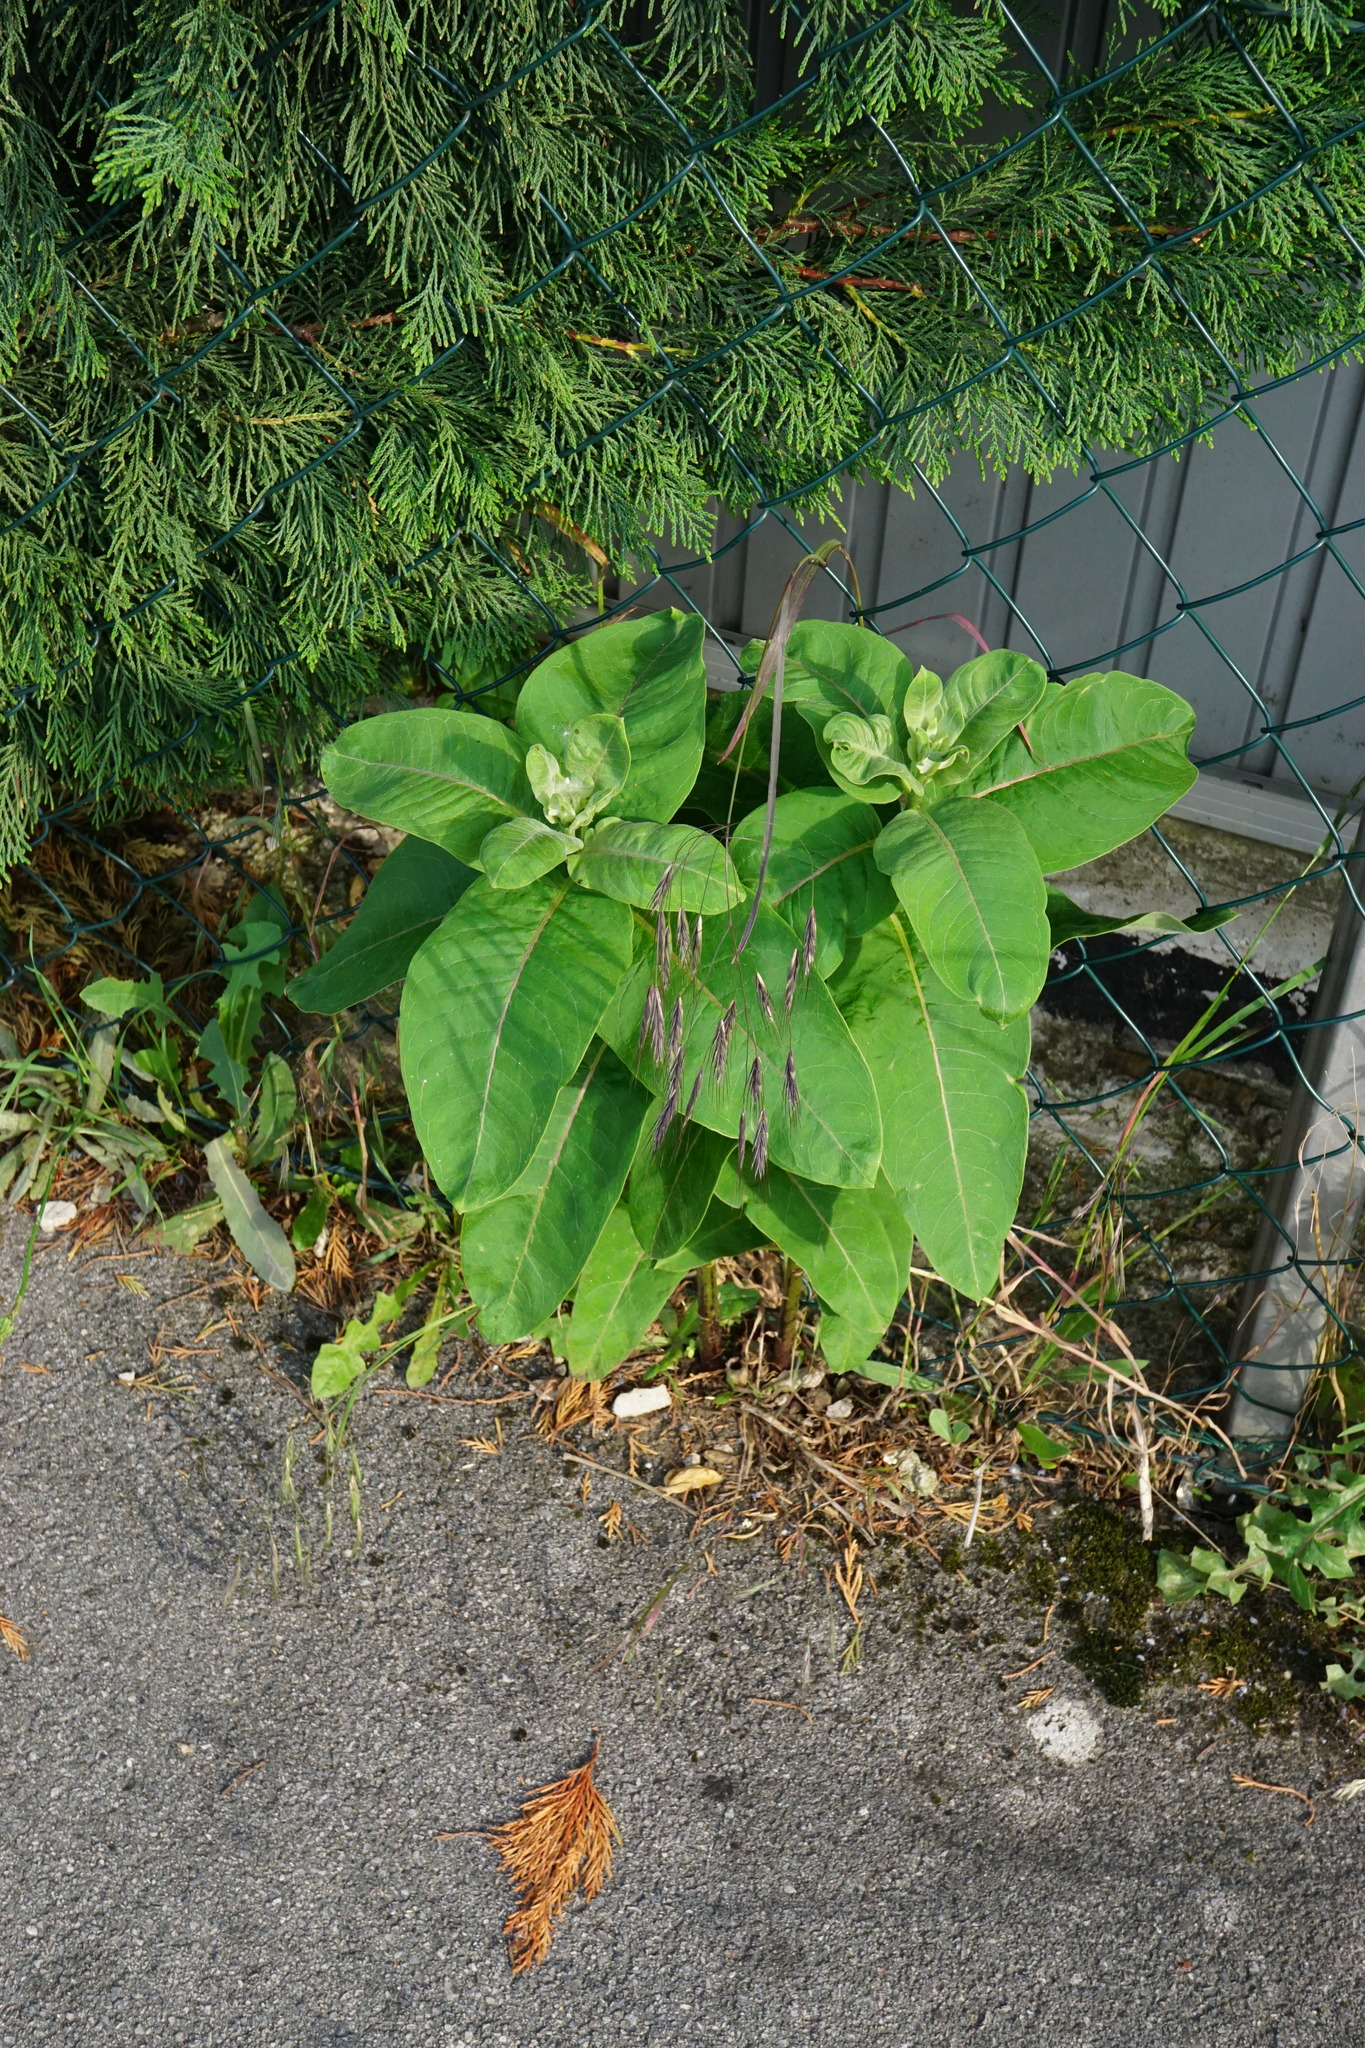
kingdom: Plantae
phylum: Tracheophyta
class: Magnoliopsida
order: Gentianales
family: Apocynaceae
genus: Asclepias
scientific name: Asclepias syriaca
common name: Common milkweed
